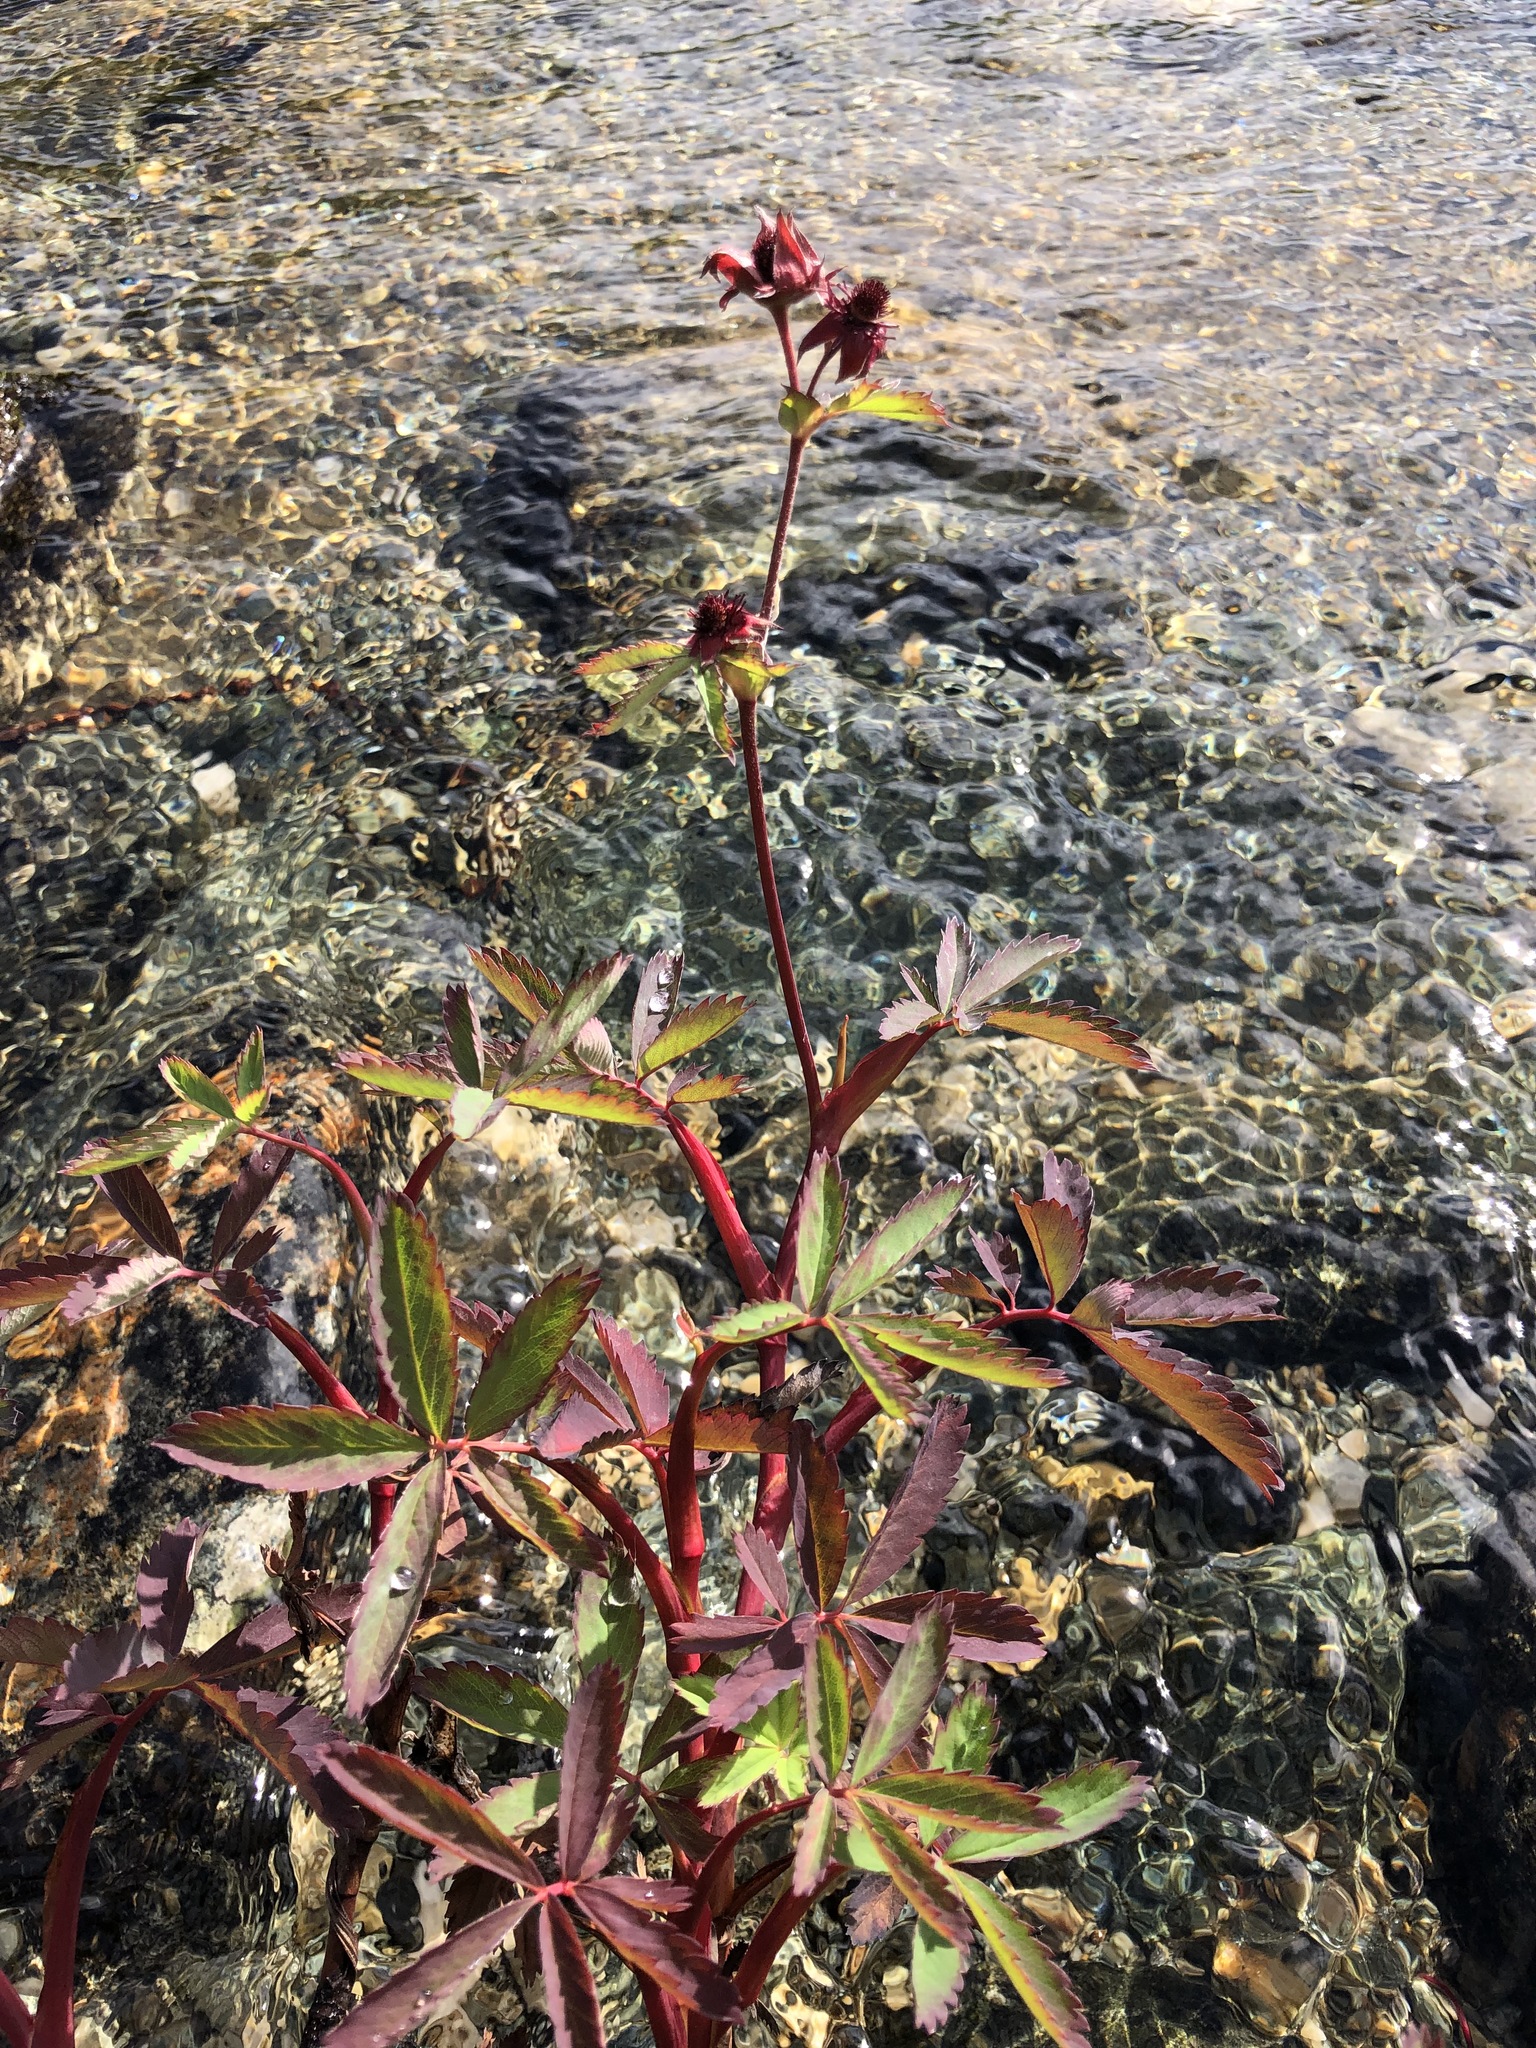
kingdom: Plantae
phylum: Tracheophyta
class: Magnoliopsida
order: Rosales
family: Rosaceae
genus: Comarum
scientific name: Comarum palustre
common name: Marsh cinquefoil
